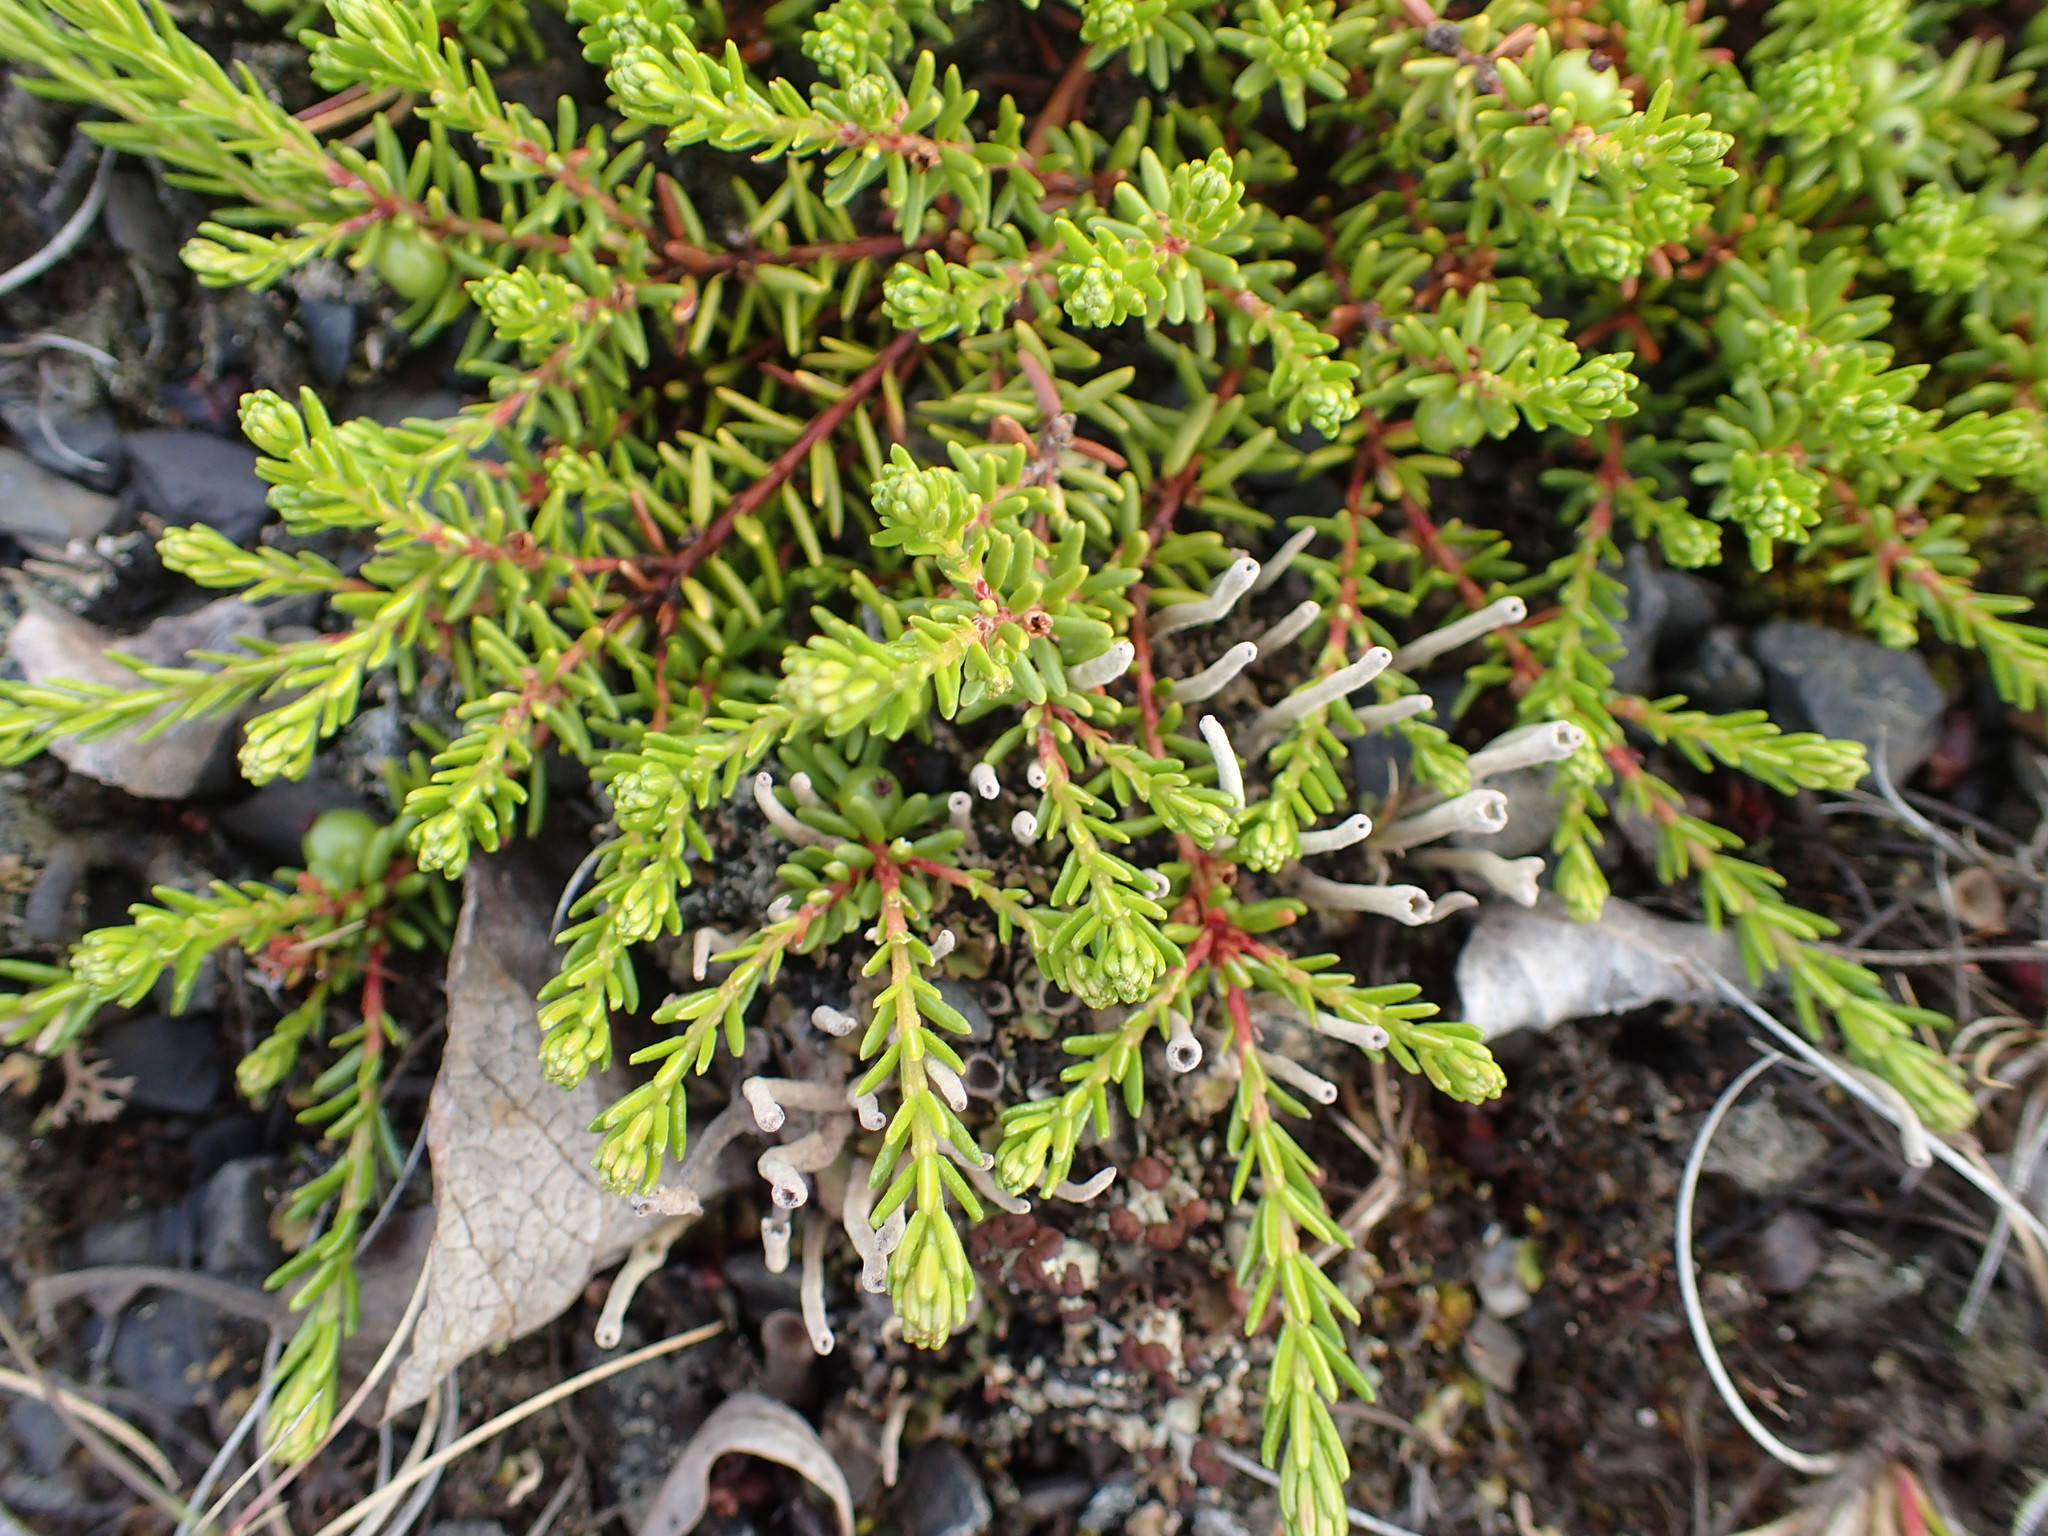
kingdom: Plantae
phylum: Tracheophyta
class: Magnoliopsida
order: Ericales
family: Ericaceae
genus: Empetrum
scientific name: Empetrum nigrum
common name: Black crowberry
